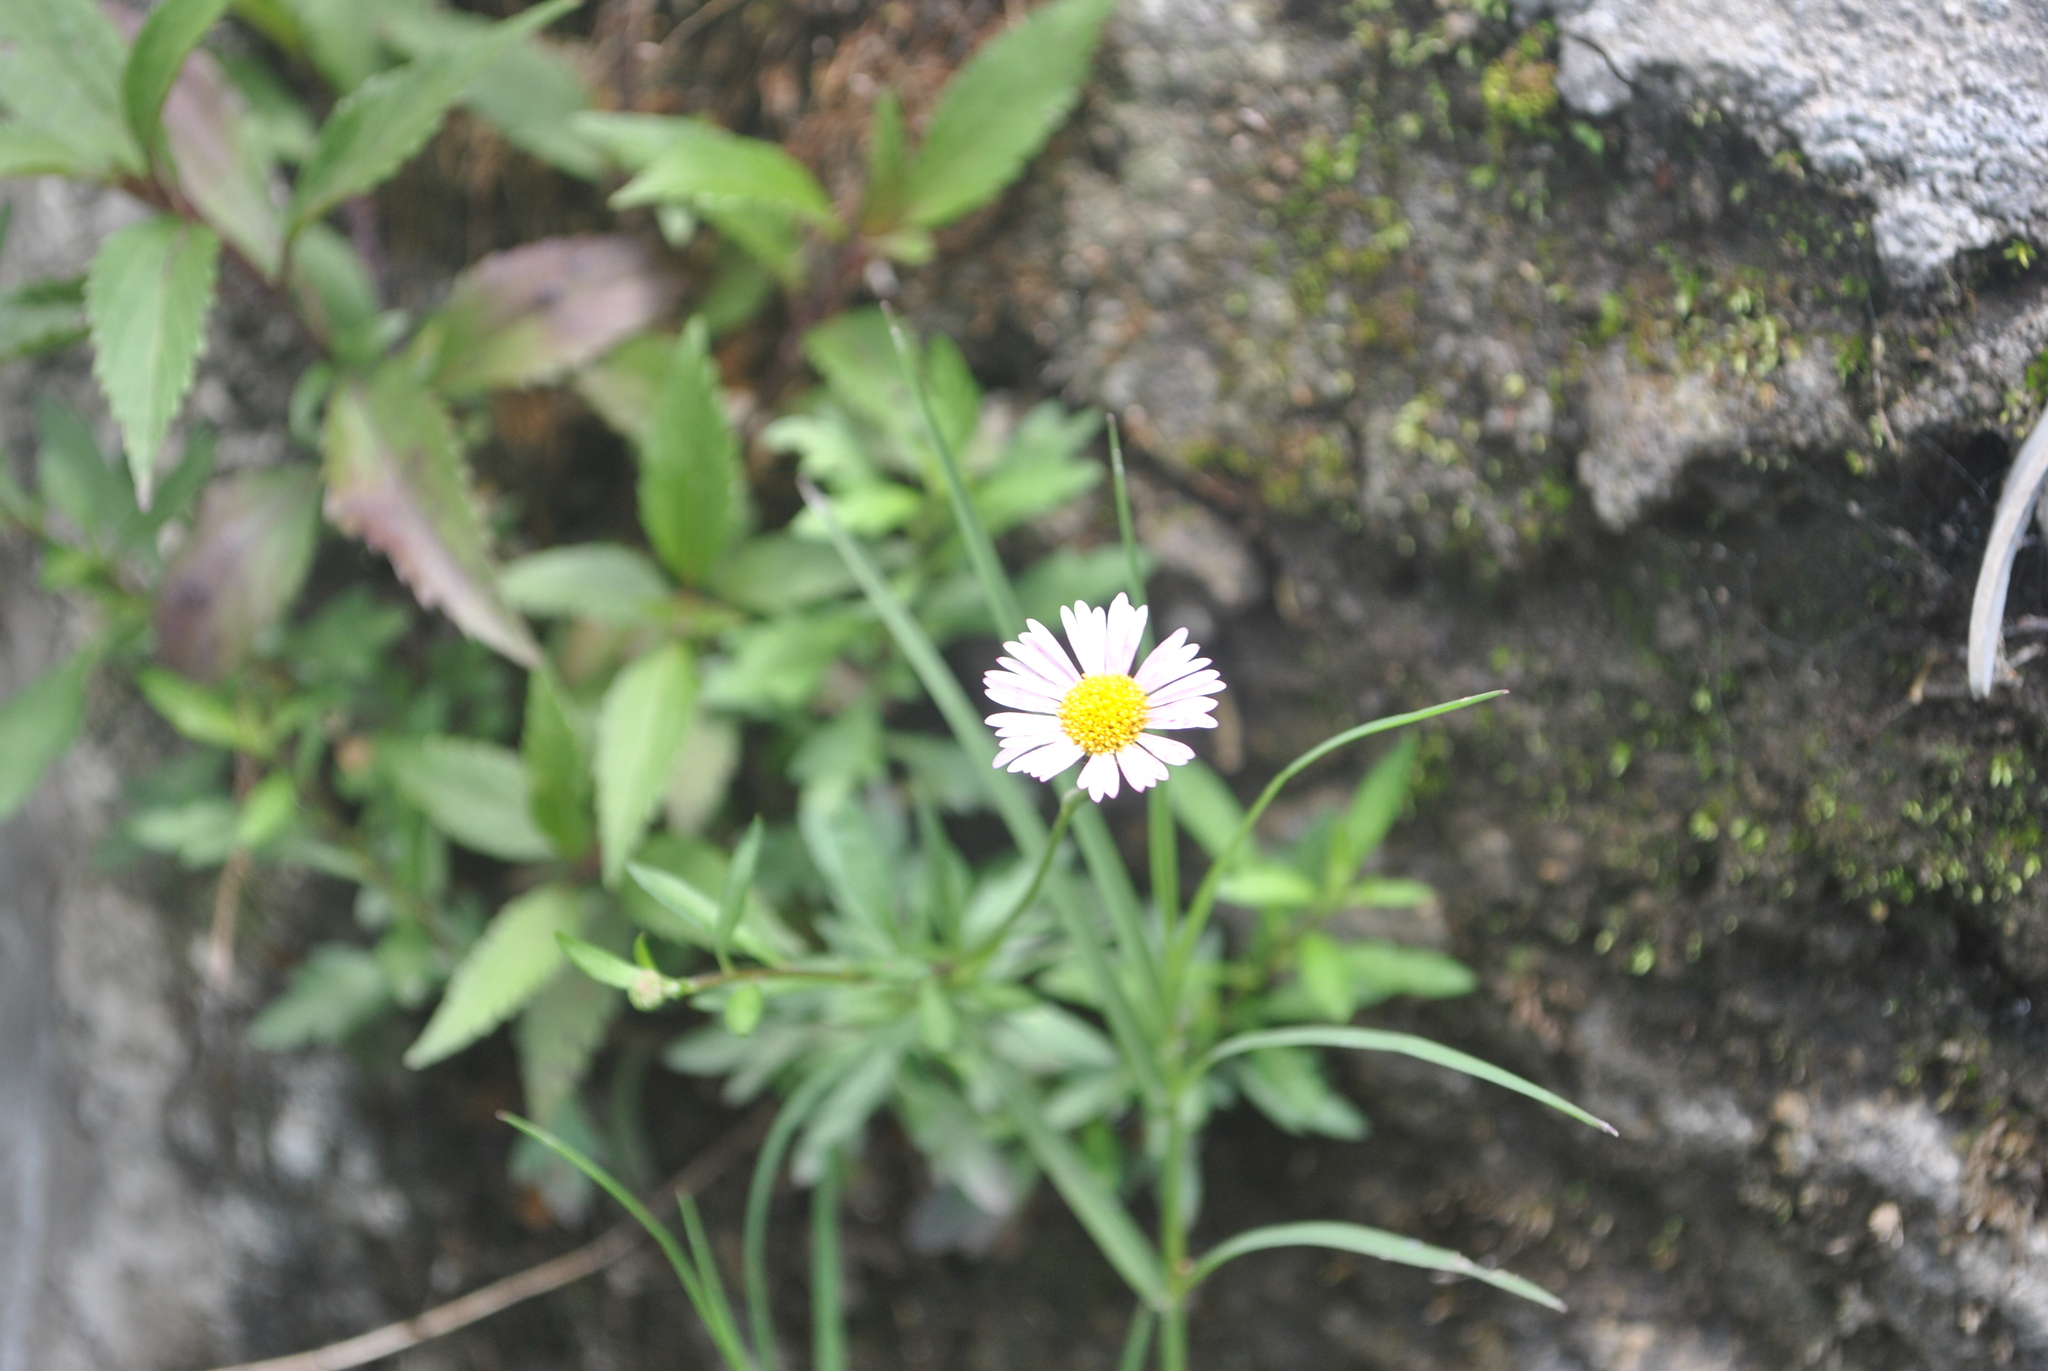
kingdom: Plantae
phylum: Tracheophyta
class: Magnoliopsida
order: Asterales
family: Asteraceae
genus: Erigeron
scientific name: Erigeron karvinskianus
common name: Mexican fleabane
